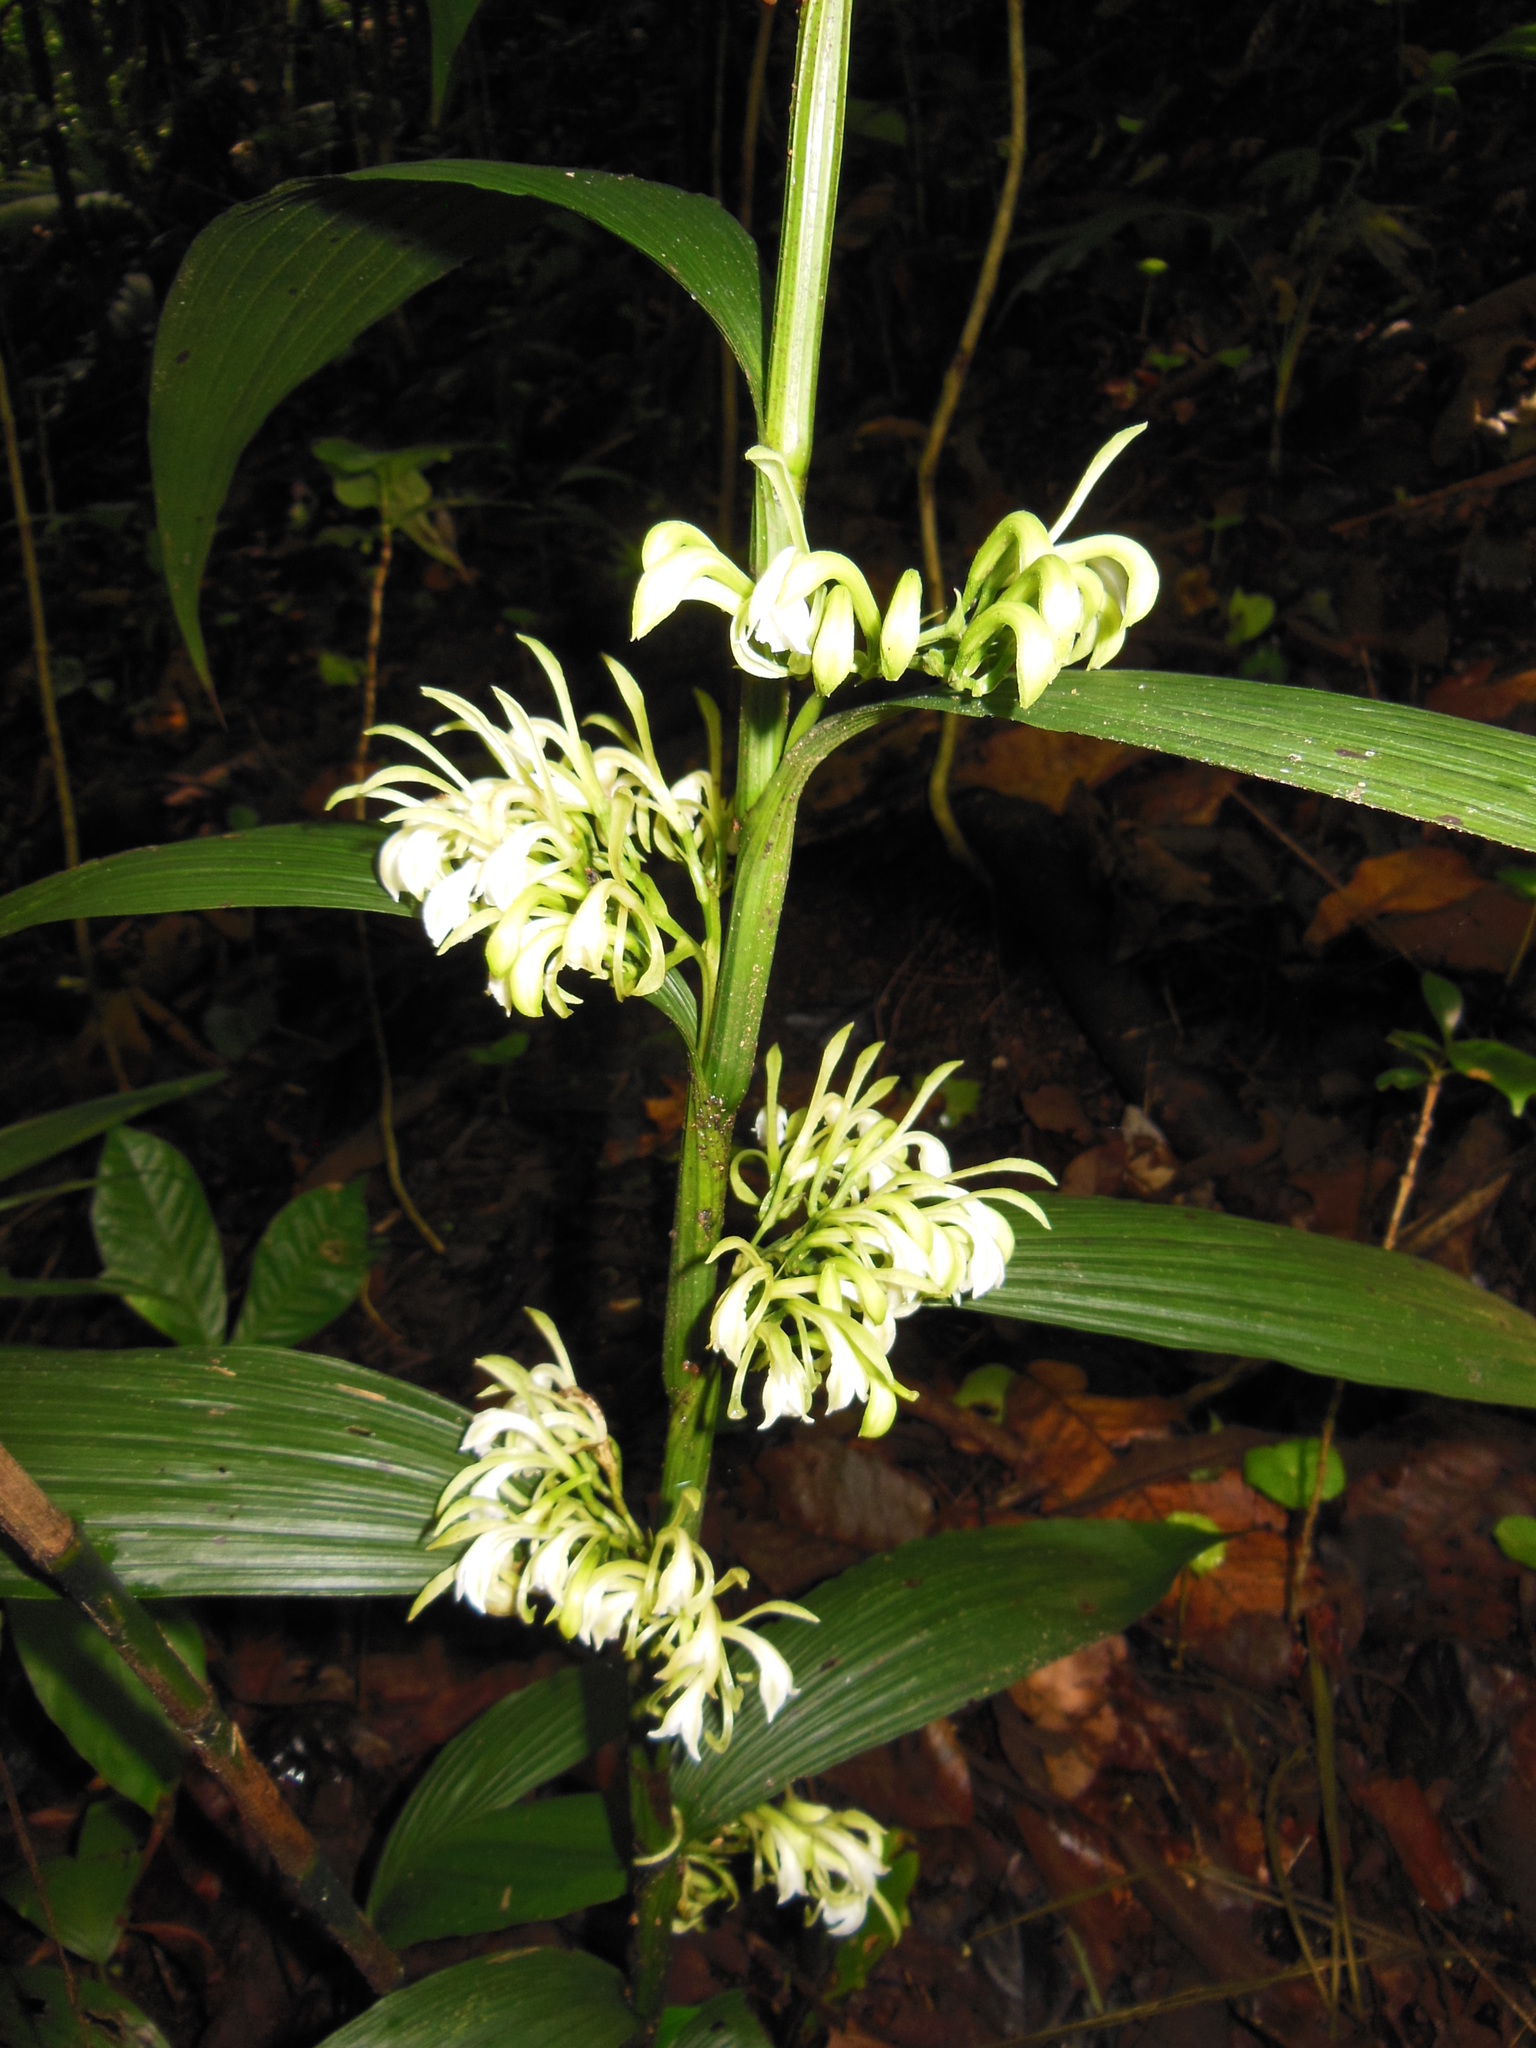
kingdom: Plantae
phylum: Tracheophyta
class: Liliopsida
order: Asparagales
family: Orchidaceae
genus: Corymborkis
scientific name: Corymborkis forcipigera
